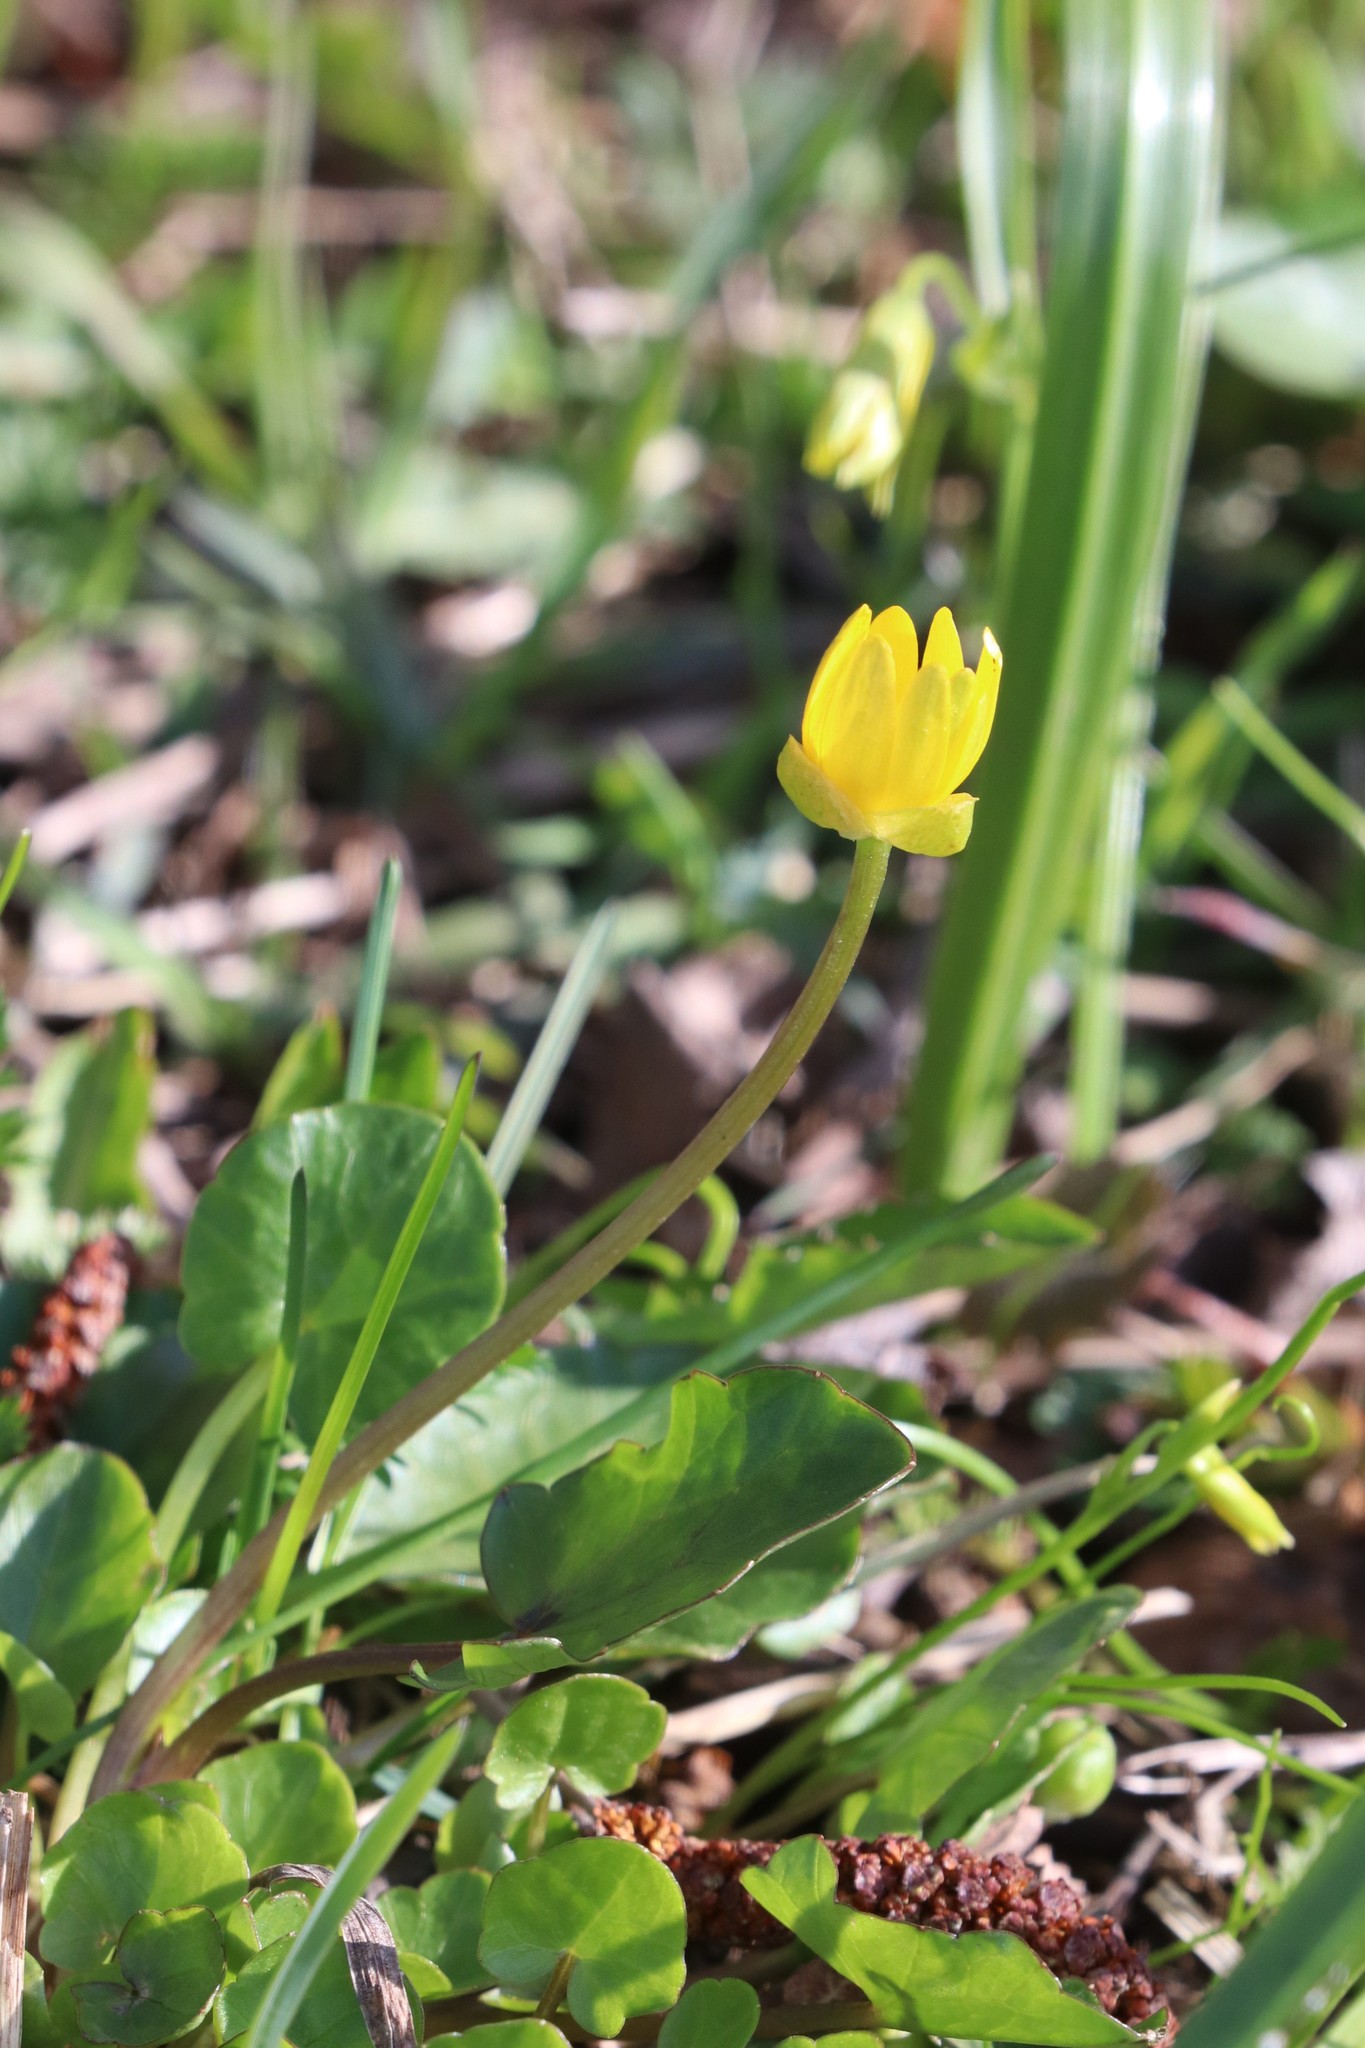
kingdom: Plantae
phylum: Tracheophyta
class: Magnoliopsida
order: Ranunculales
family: Ranunculaceae
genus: Ficaria
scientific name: Ficaria verna
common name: Lesser celandine
